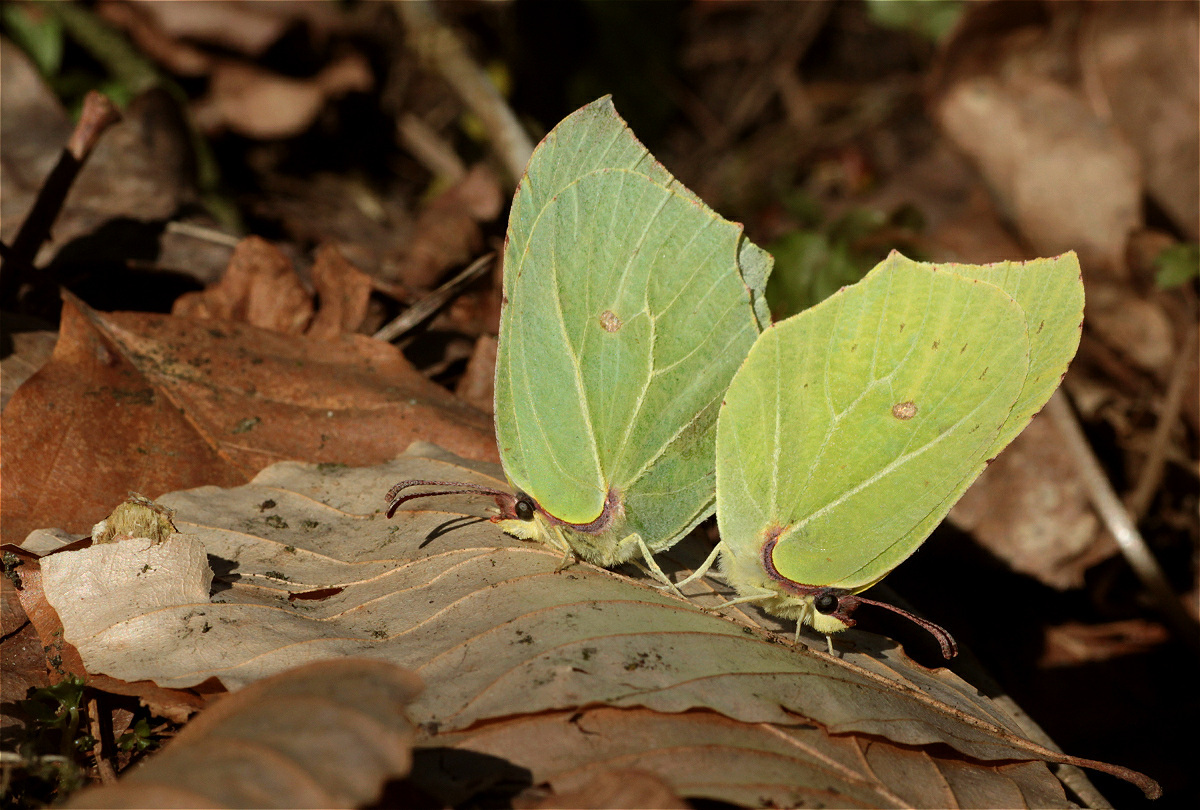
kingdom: Animalia
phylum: Arthropoda
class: Insecta
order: Lepidoptera
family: Pieridae
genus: Gonepteryx
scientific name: Gonepteryx rhamni
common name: Brimstone
